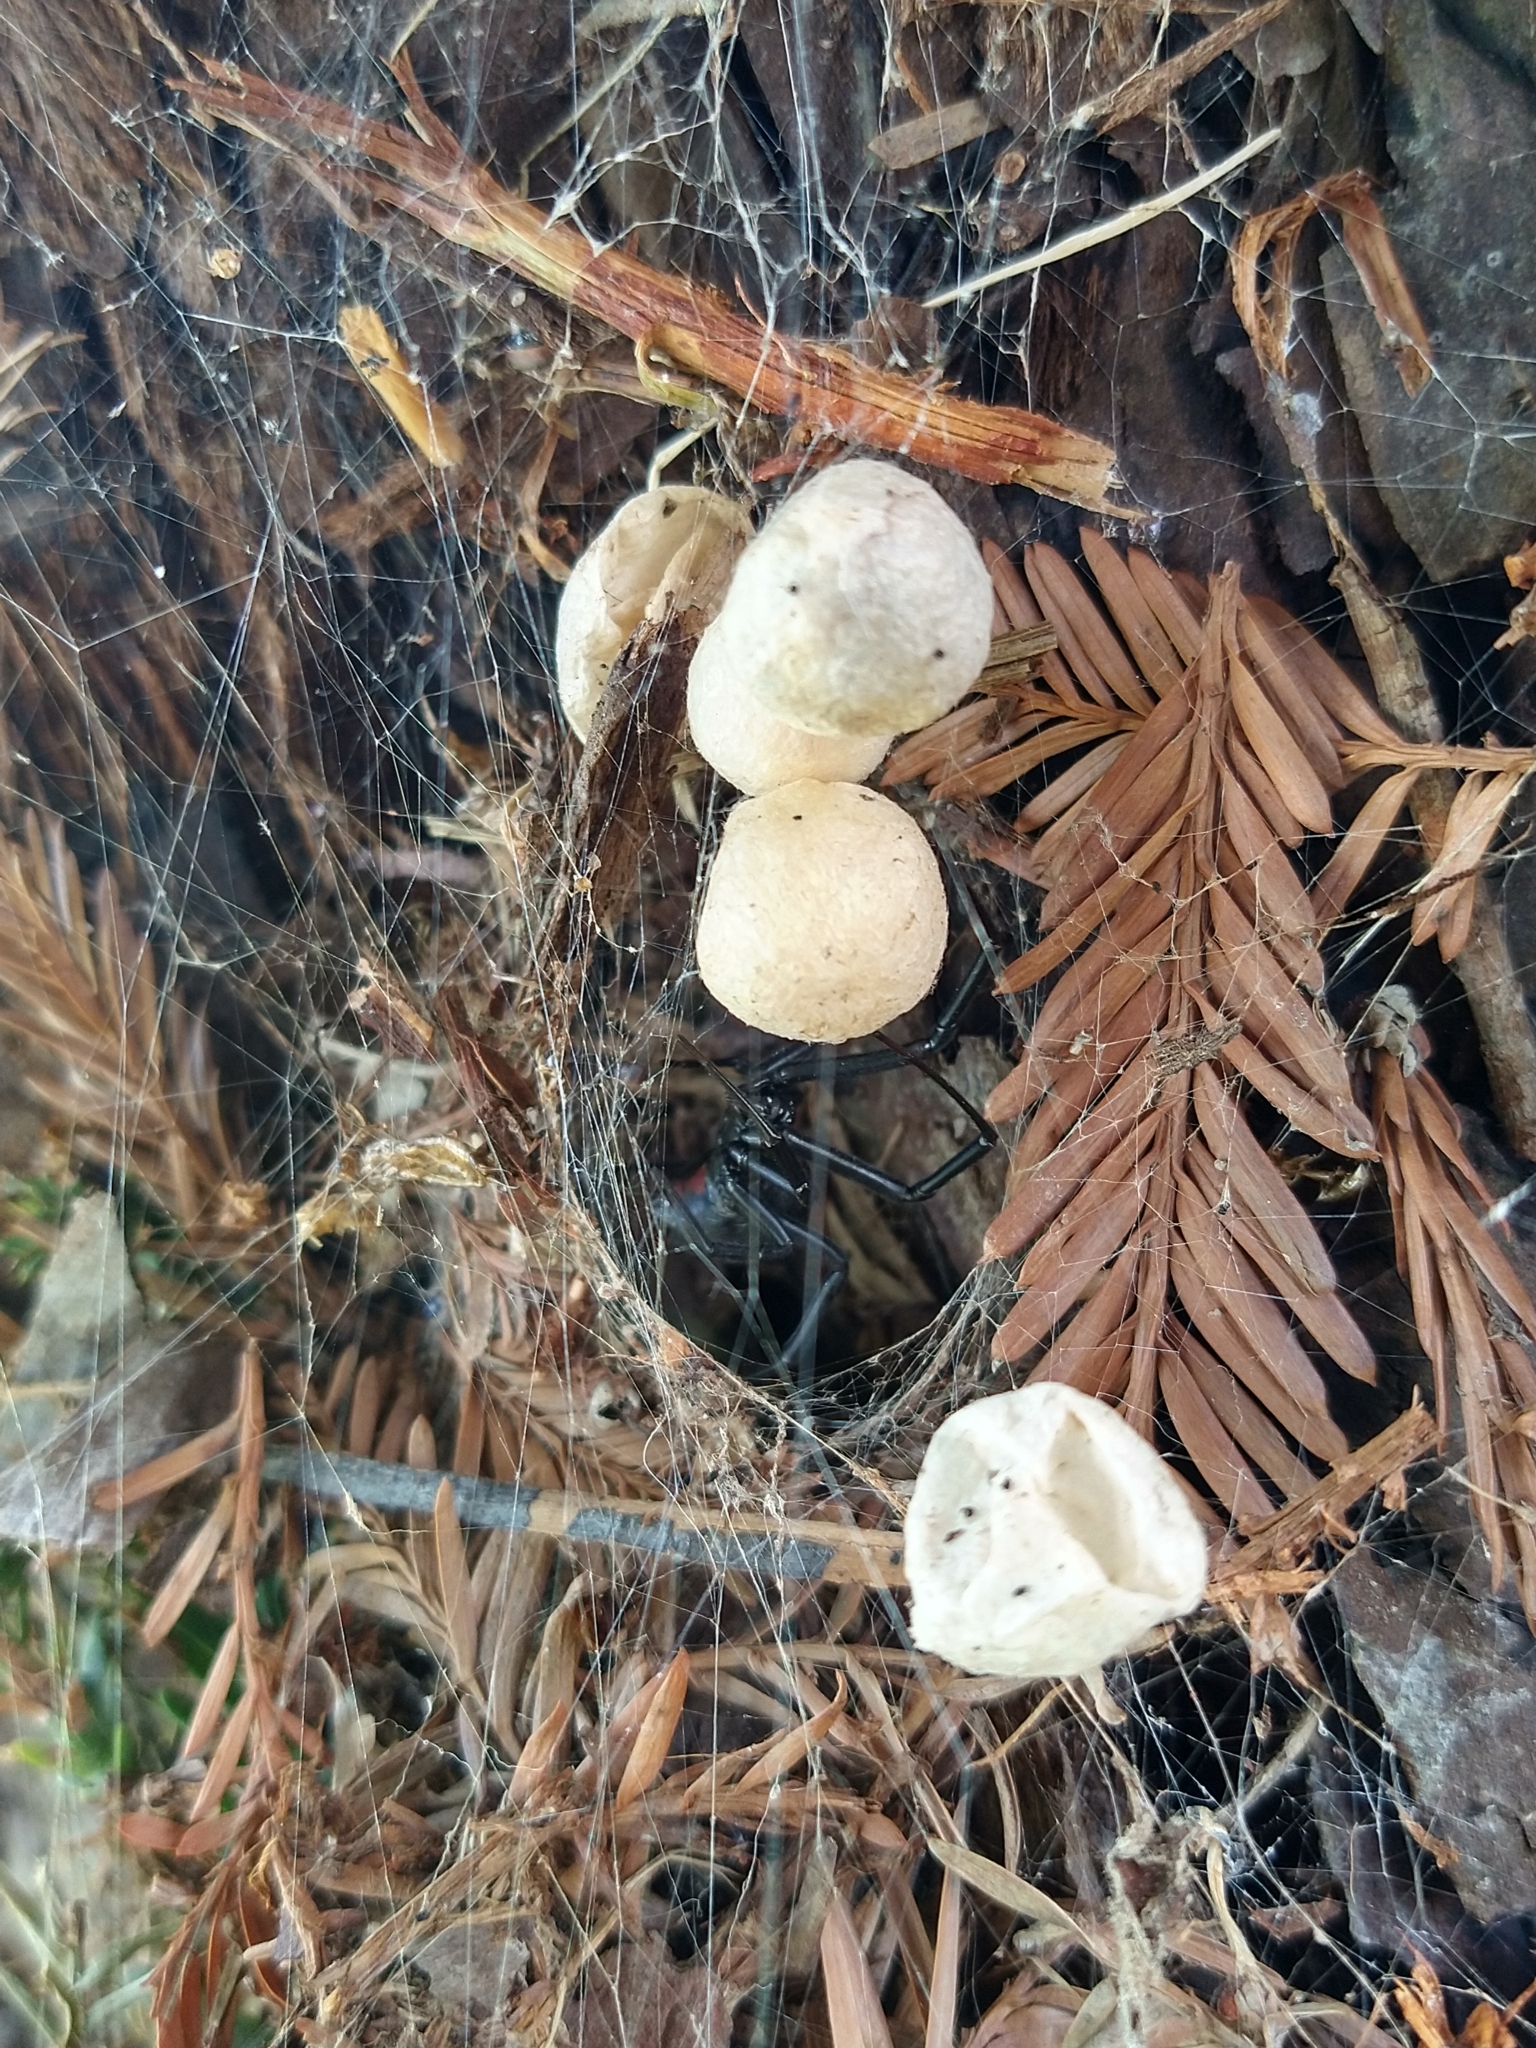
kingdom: Animalia
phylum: Arthropoda
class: Arachnida
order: Araneae
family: Theridiidae
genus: Latrodectus
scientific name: Latrodectus hesperus
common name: Western black widow
